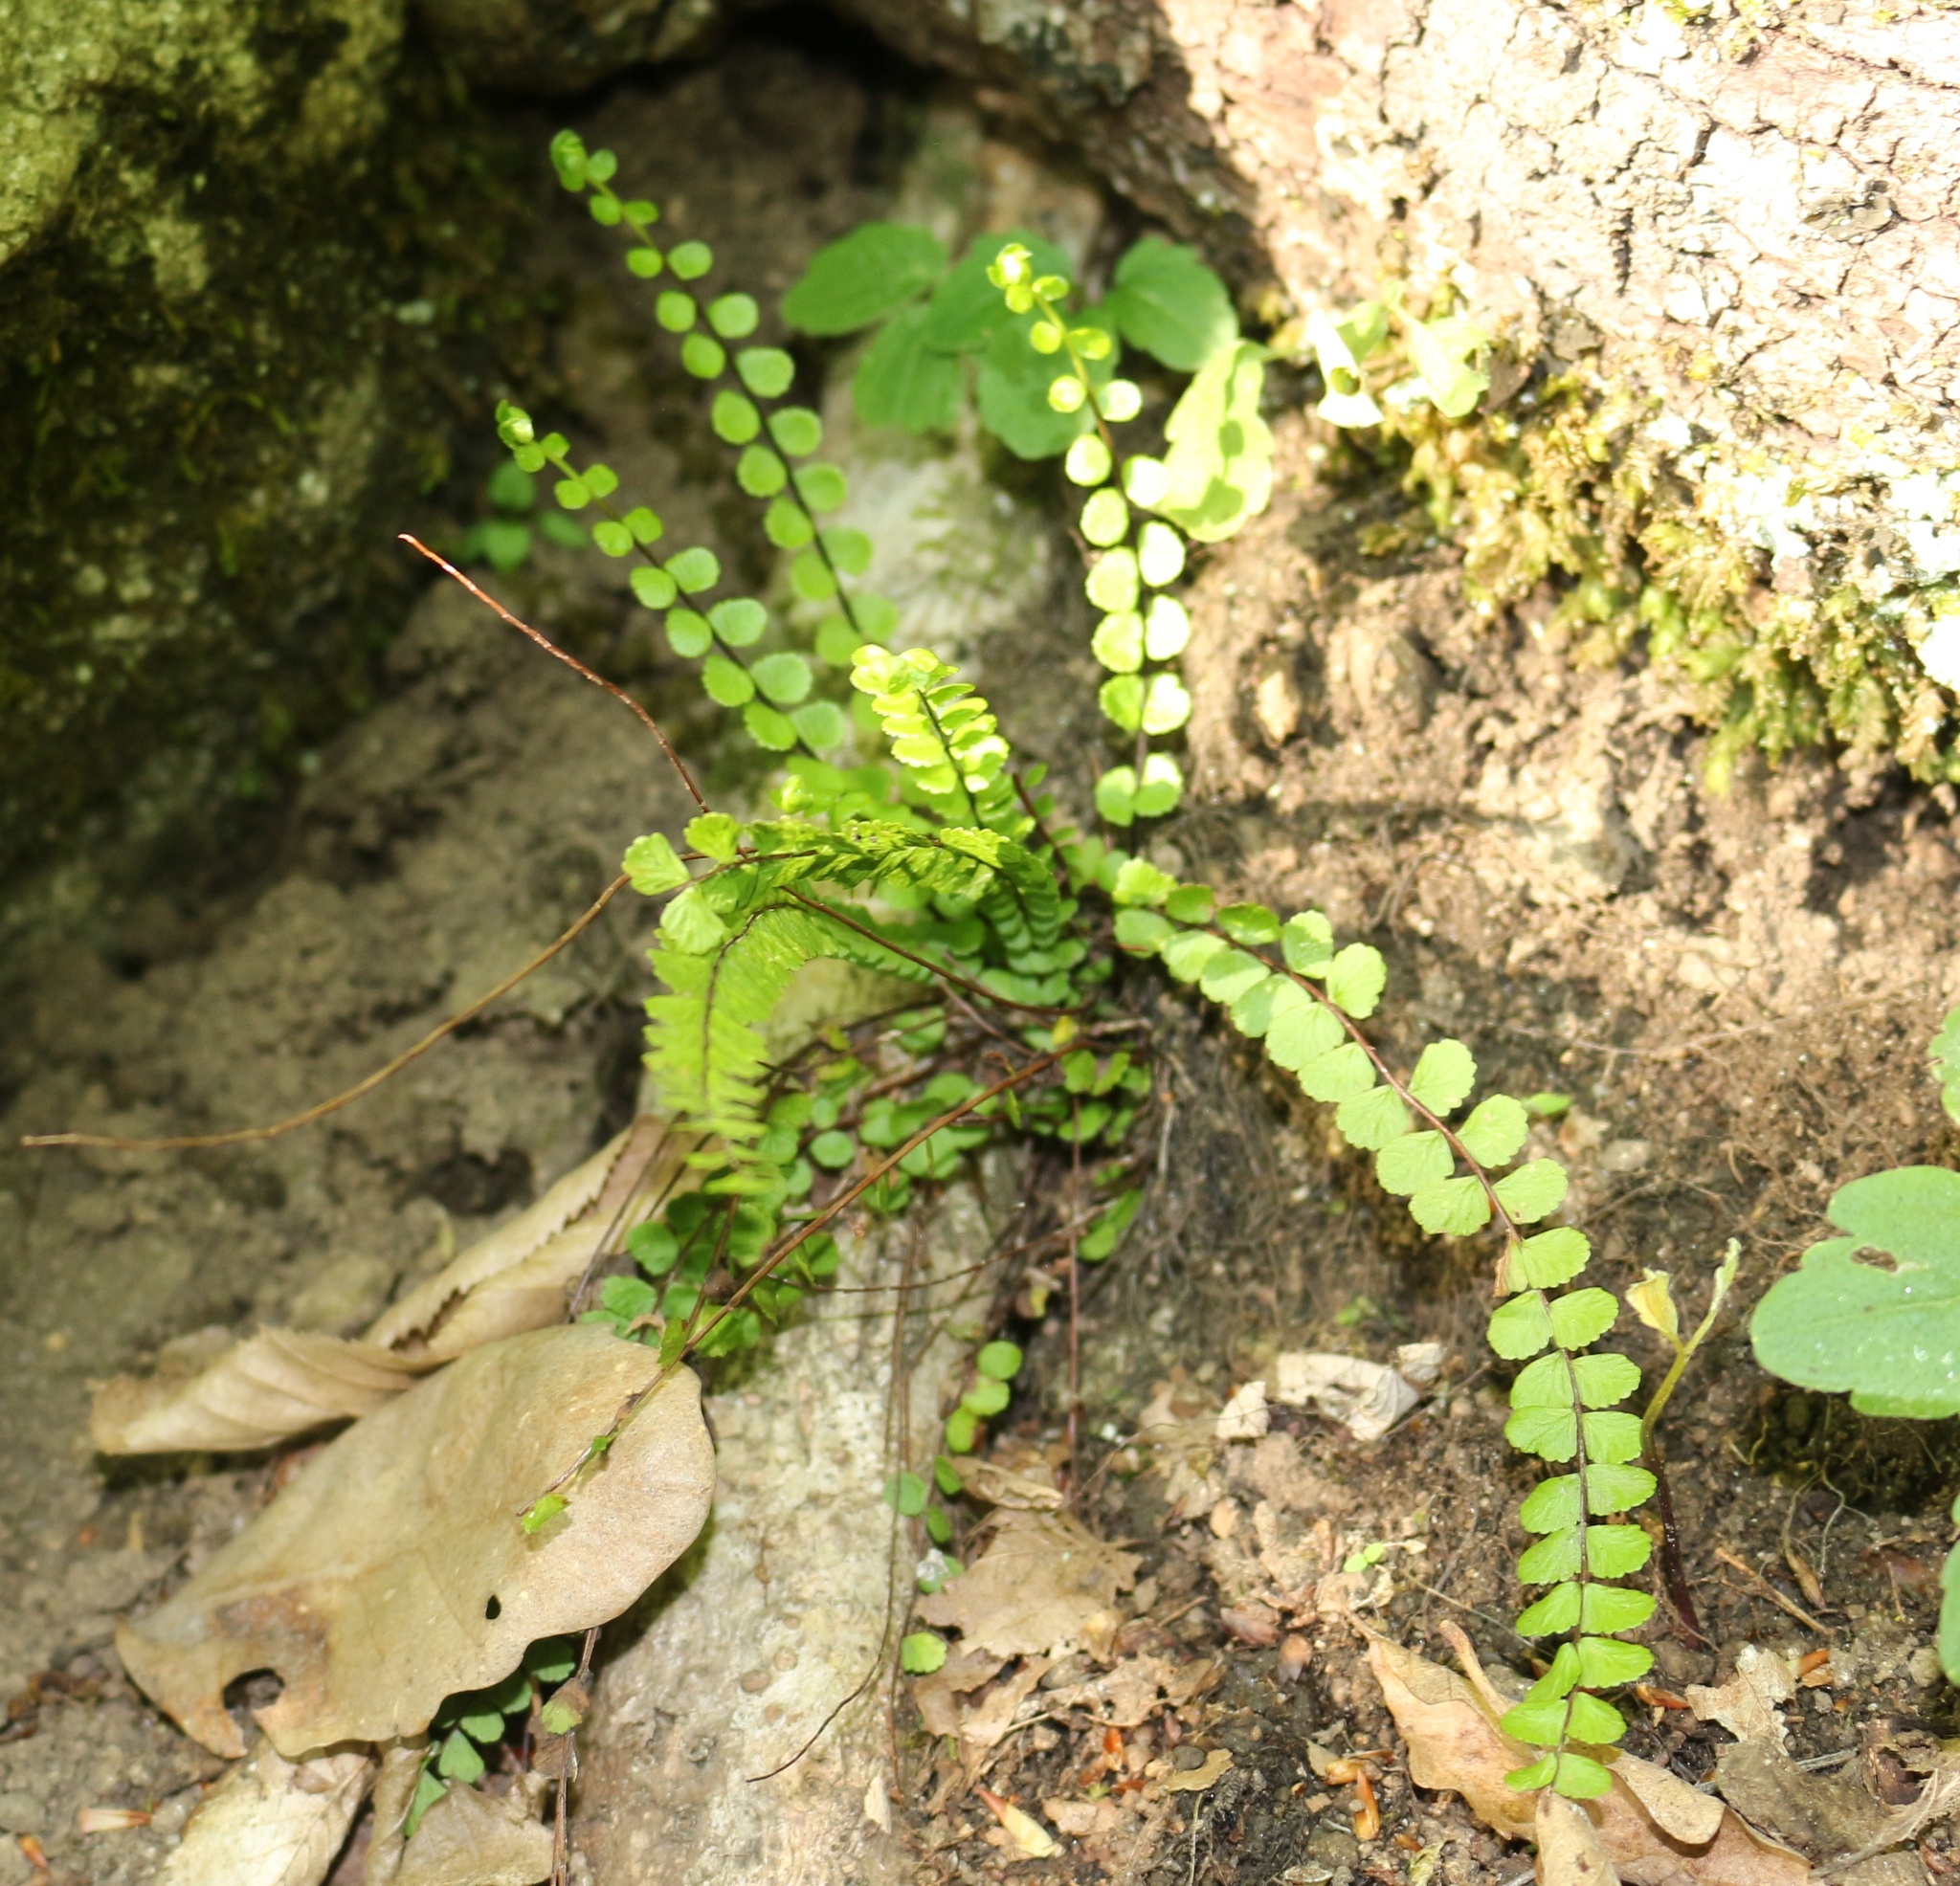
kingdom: Plantae
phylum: Tracheophyta
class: Polypodiopsida
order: Polypodiales
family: Aspleniaceae
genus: Asplenium
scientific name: Asplenium trichomanes
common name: Maidenhair spleenwort
